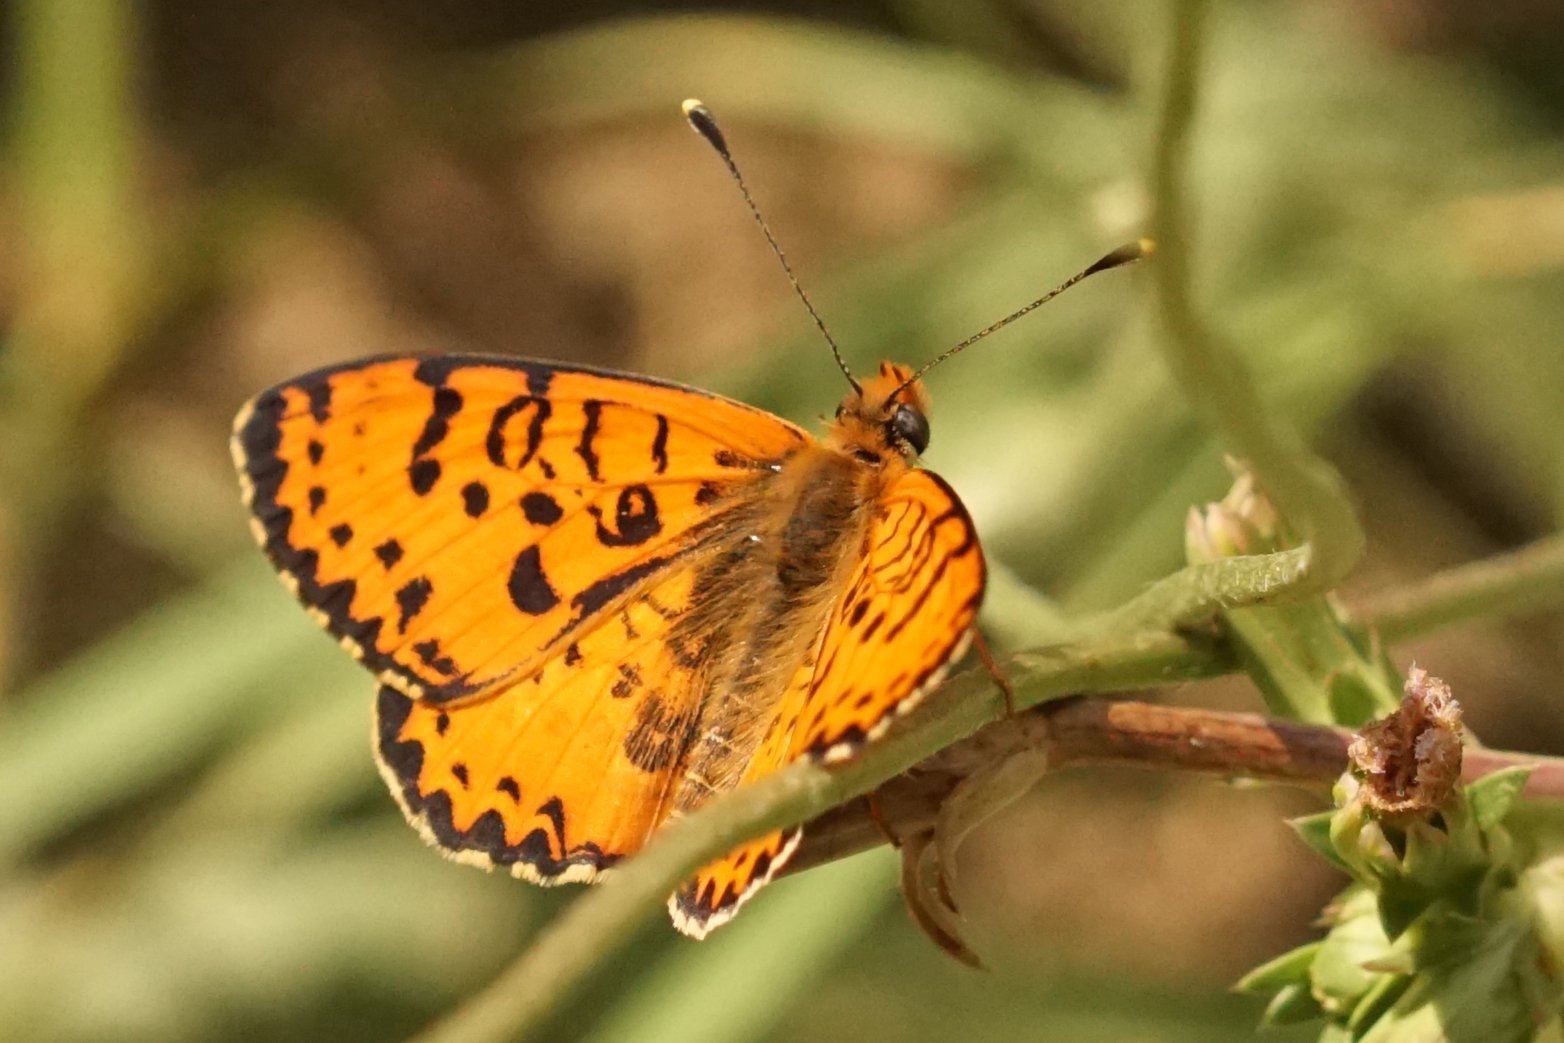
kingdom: Animalia
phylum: Arthropoda
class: Insecta
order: Lepidoptera
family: Nymphalidae
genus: Melitaea
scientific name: Melitaea didyma
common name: Spotted fritillary
